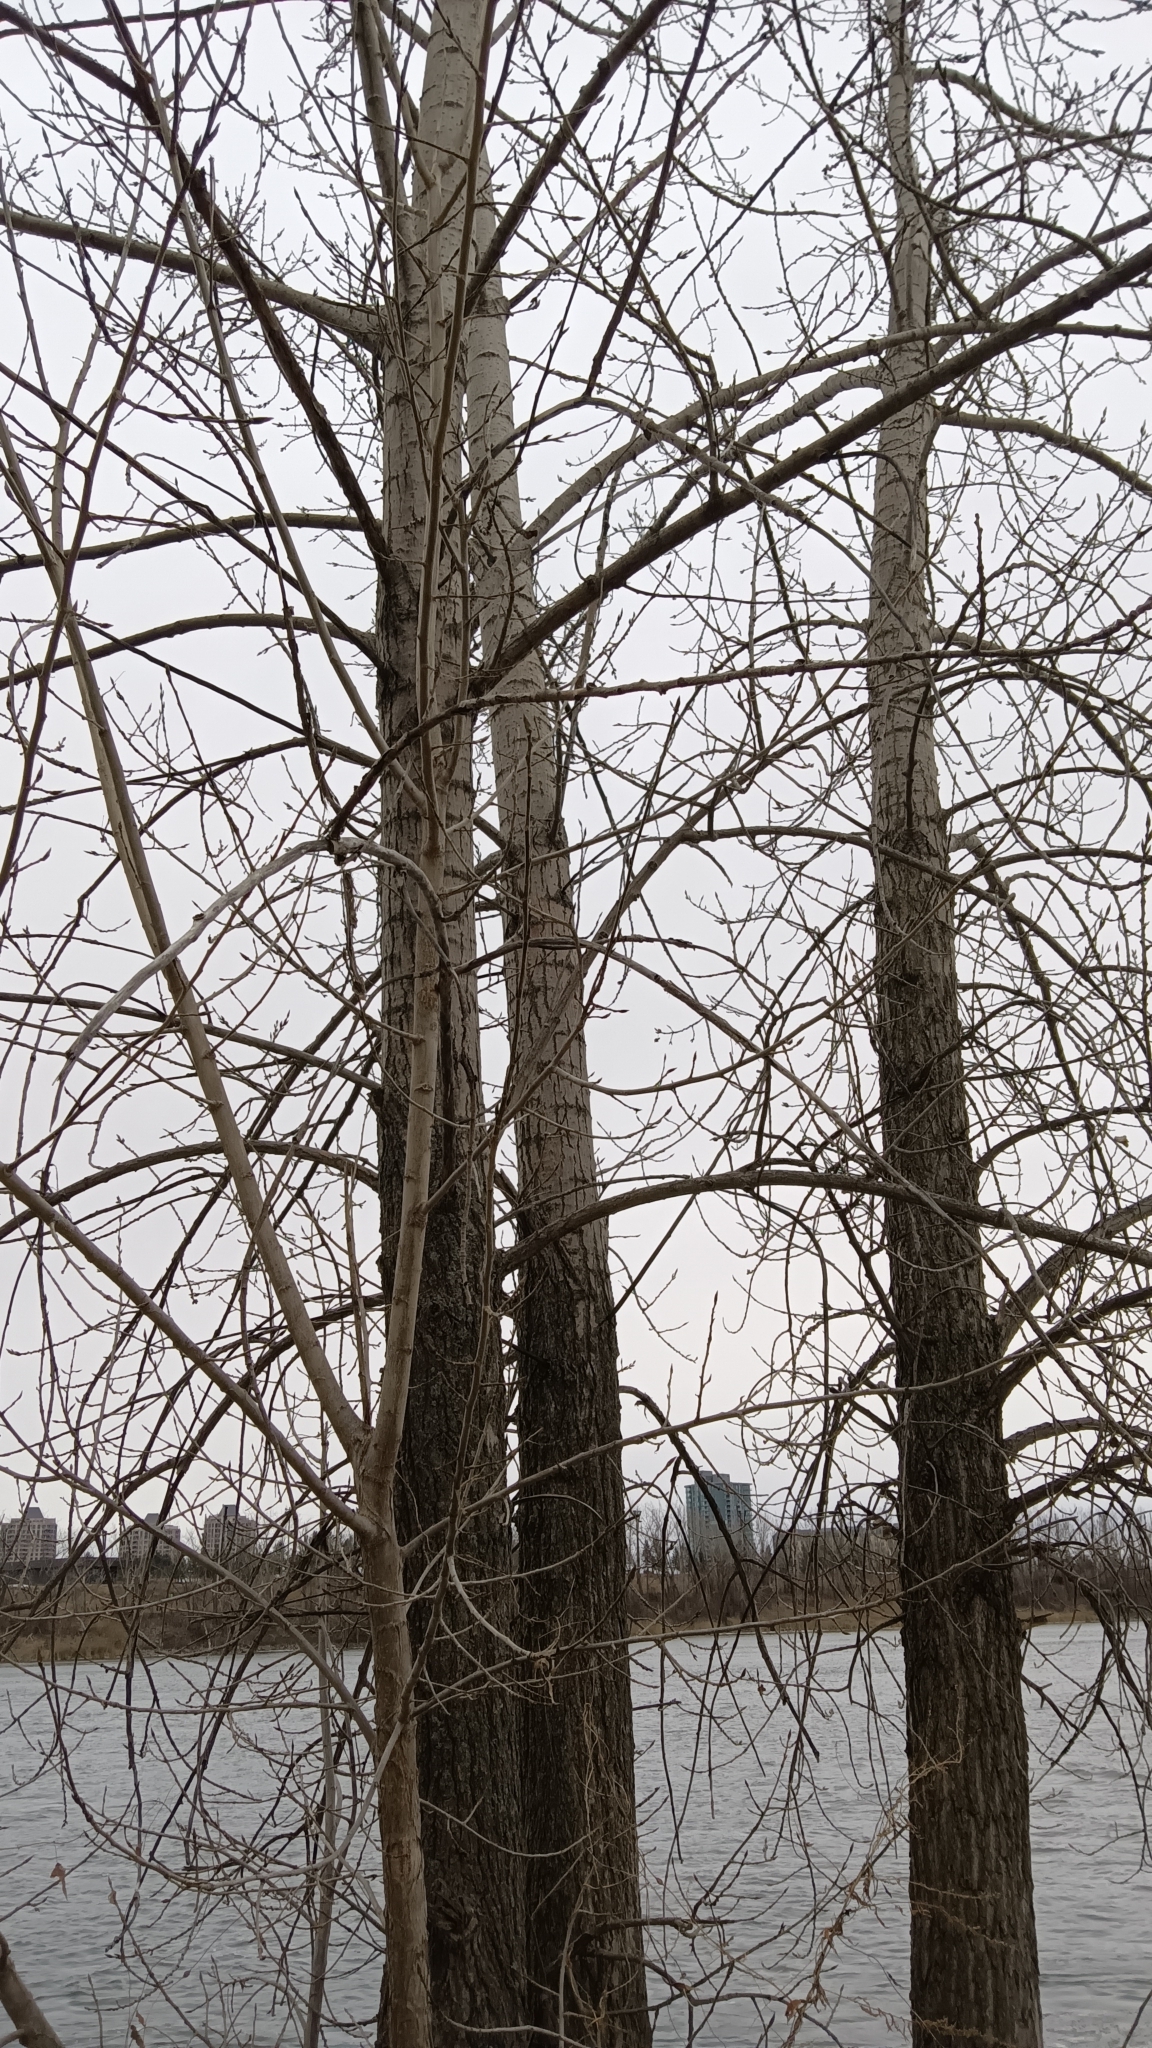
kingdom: Plantae
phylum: Tracheophyta
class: Magnoliopsida
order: Malpighiales
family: Salicaceae
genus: Populus
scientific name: Populus deltoides
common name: Eastern cottonwood
